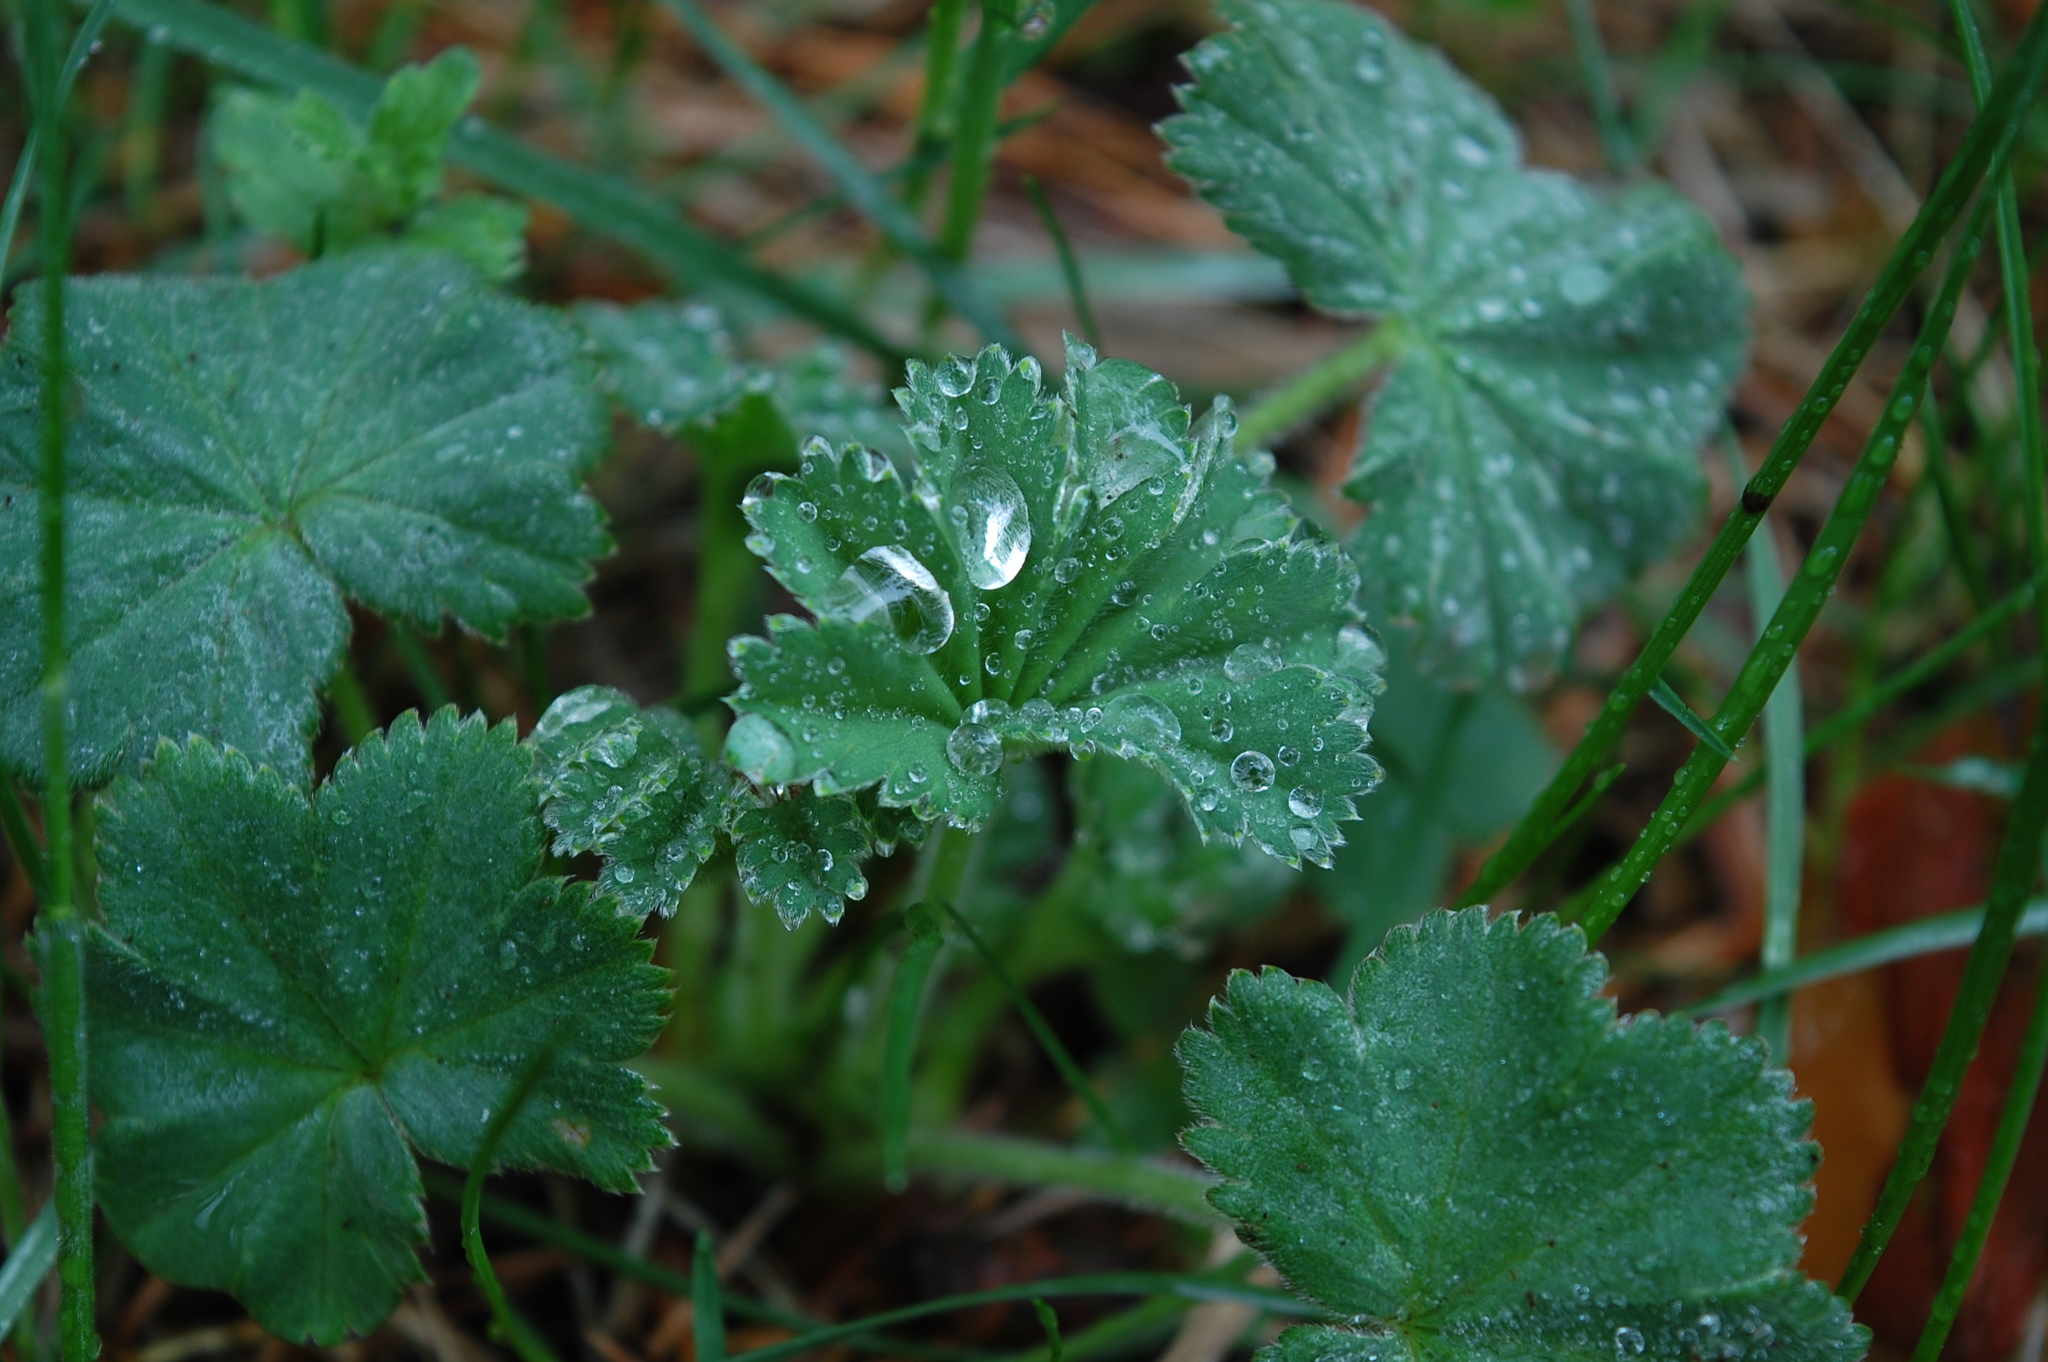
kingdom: Plantae
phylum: Tracheophyta
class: Magnoliopsida
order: Rosales
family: Rosaceae
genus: Alchemilla
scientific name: Alchemilla
